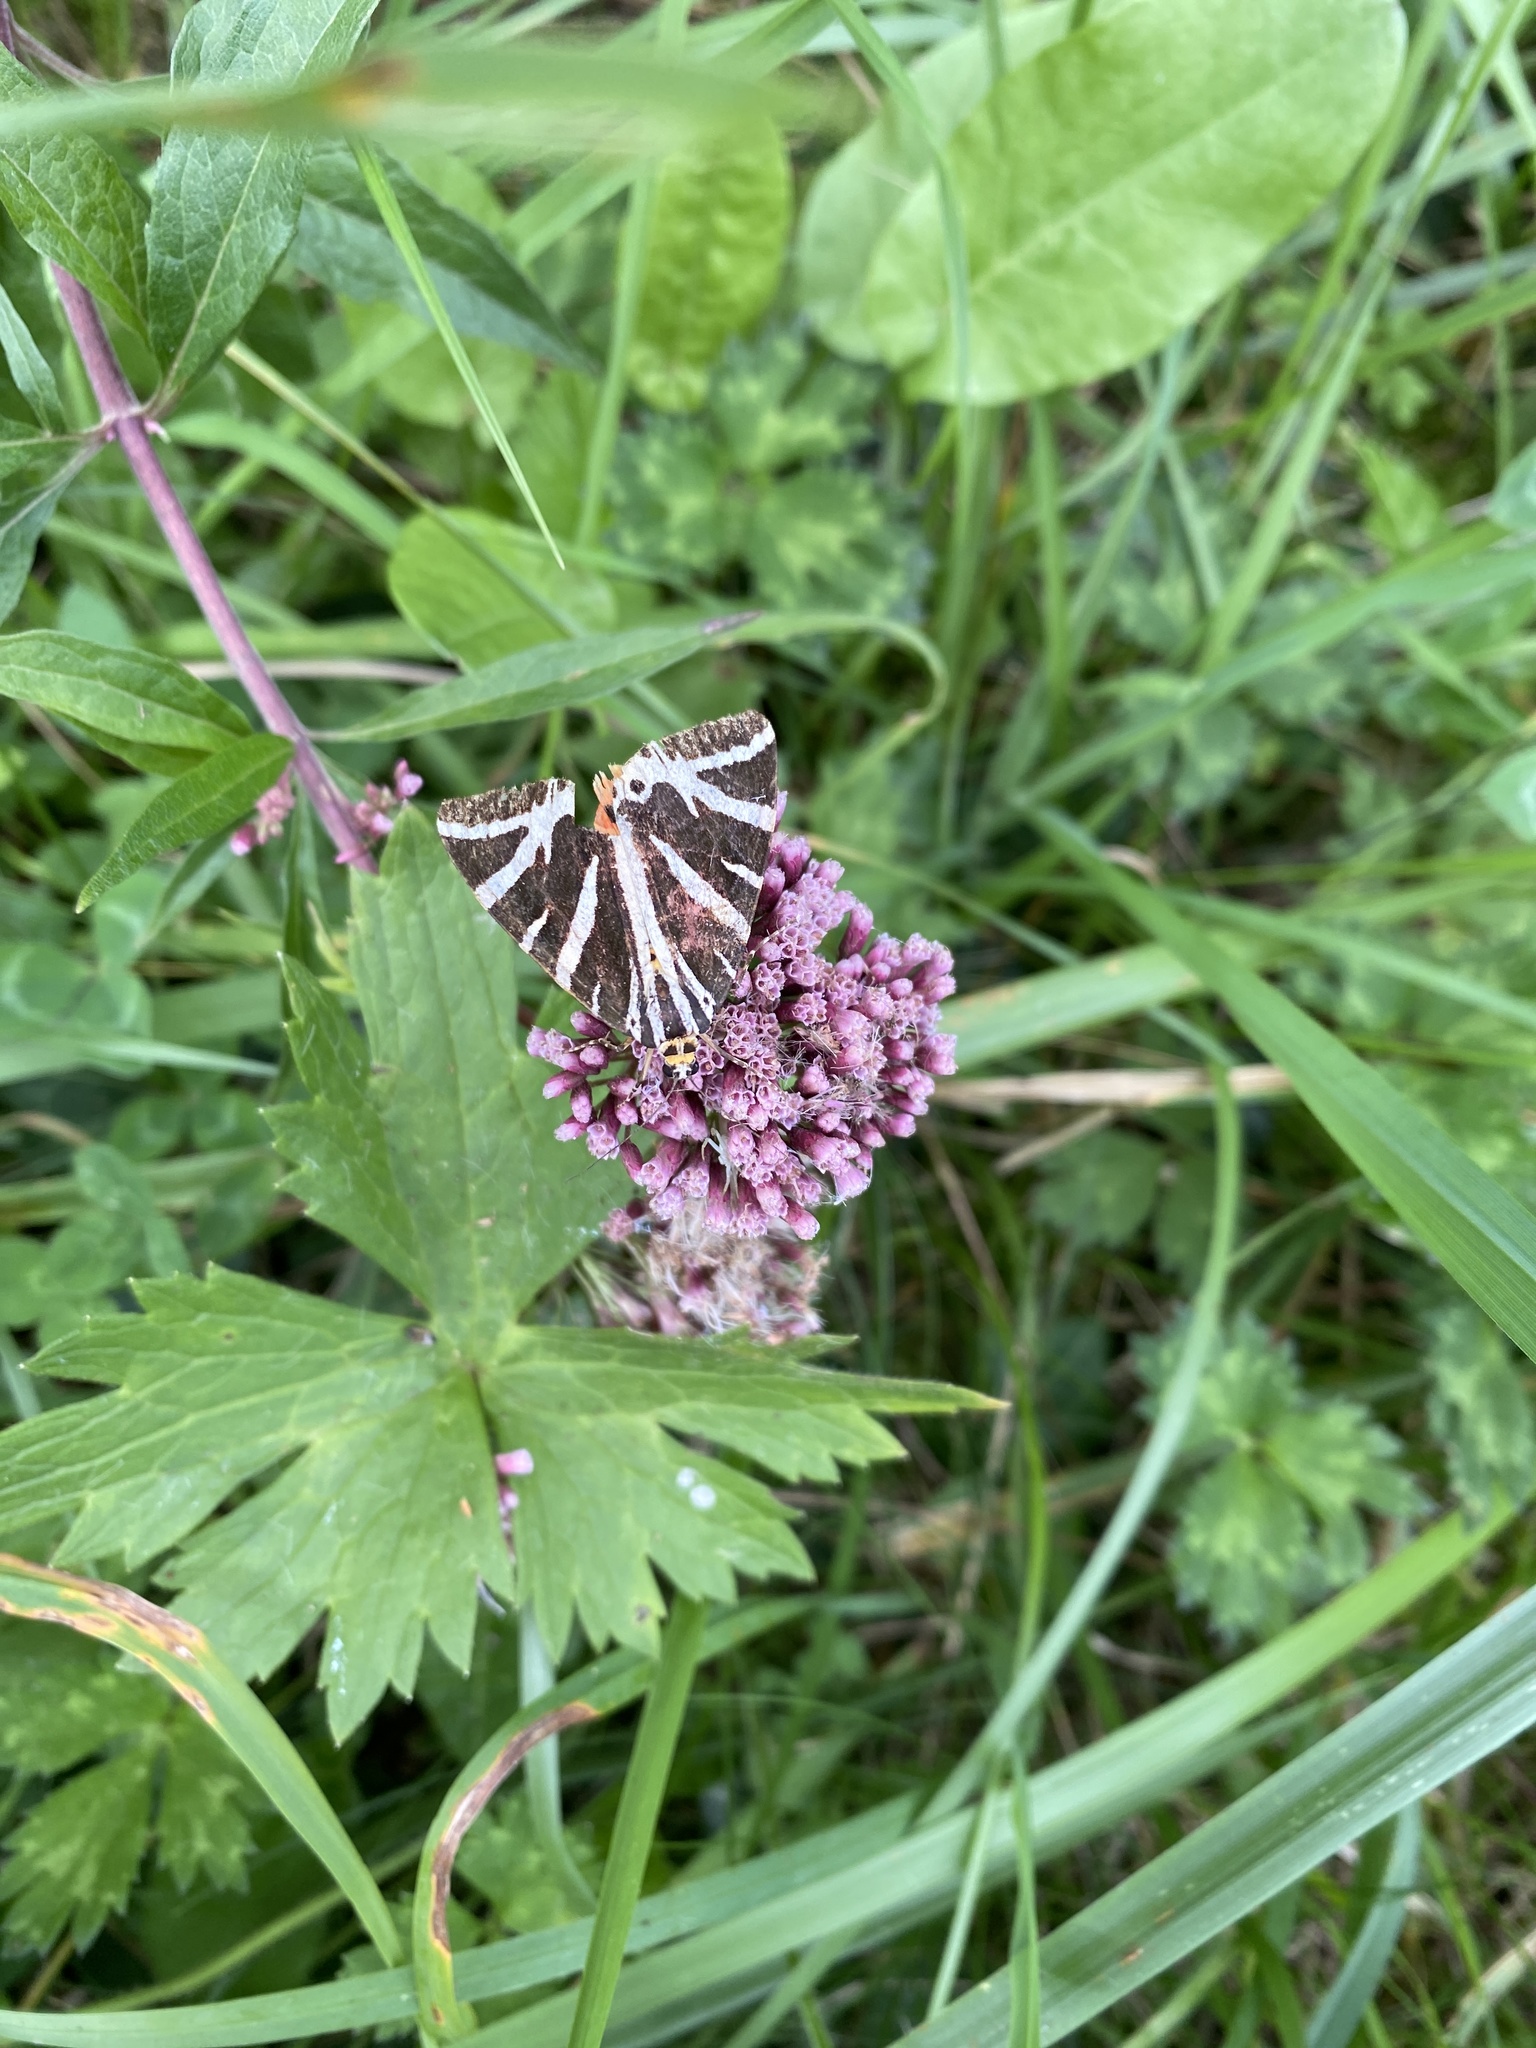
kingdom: Animalia
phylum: Arthropoda
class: Insecta
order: Lepidoptera
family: Erebidae
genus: Euplagia
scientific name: Euplagia quadripunctaria
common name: Jersey tiger
